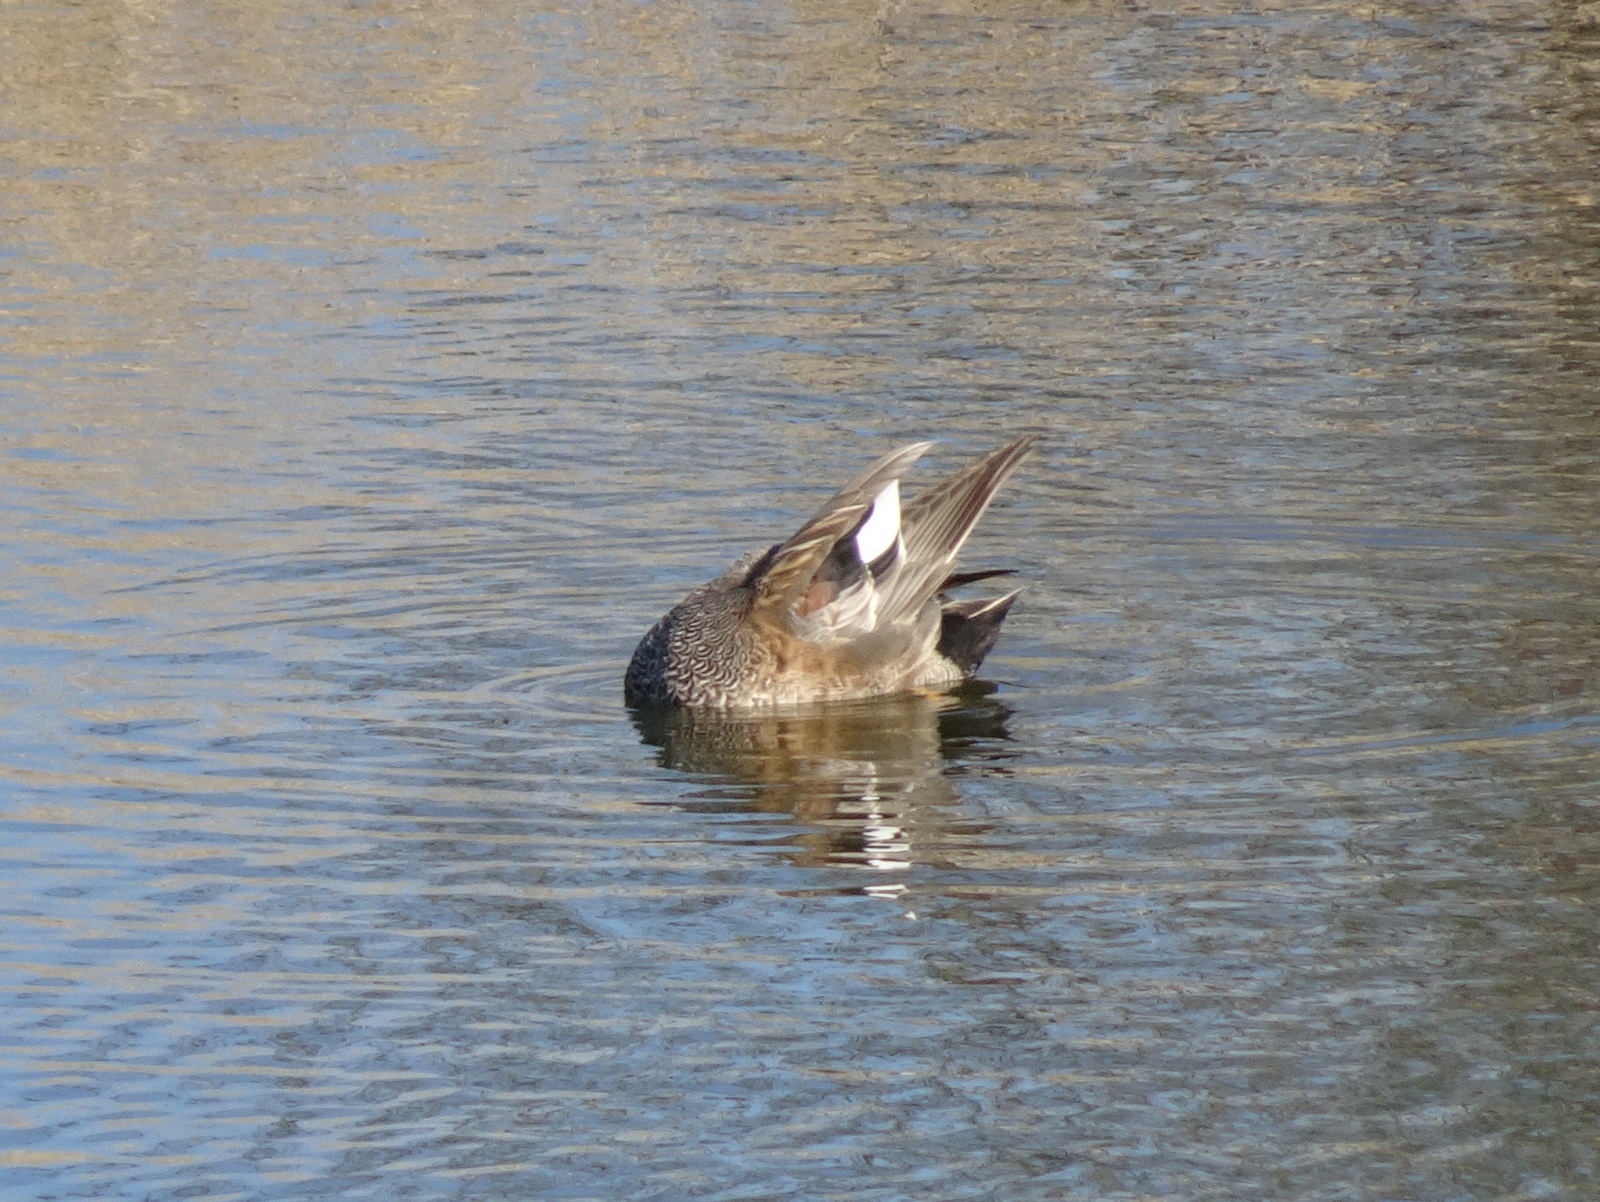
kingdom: Animalia
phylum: Chordata
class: Aves
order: Anseriformes
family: Anatidae
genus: Mareca
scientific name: Mareca strepera
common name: Gadwall
